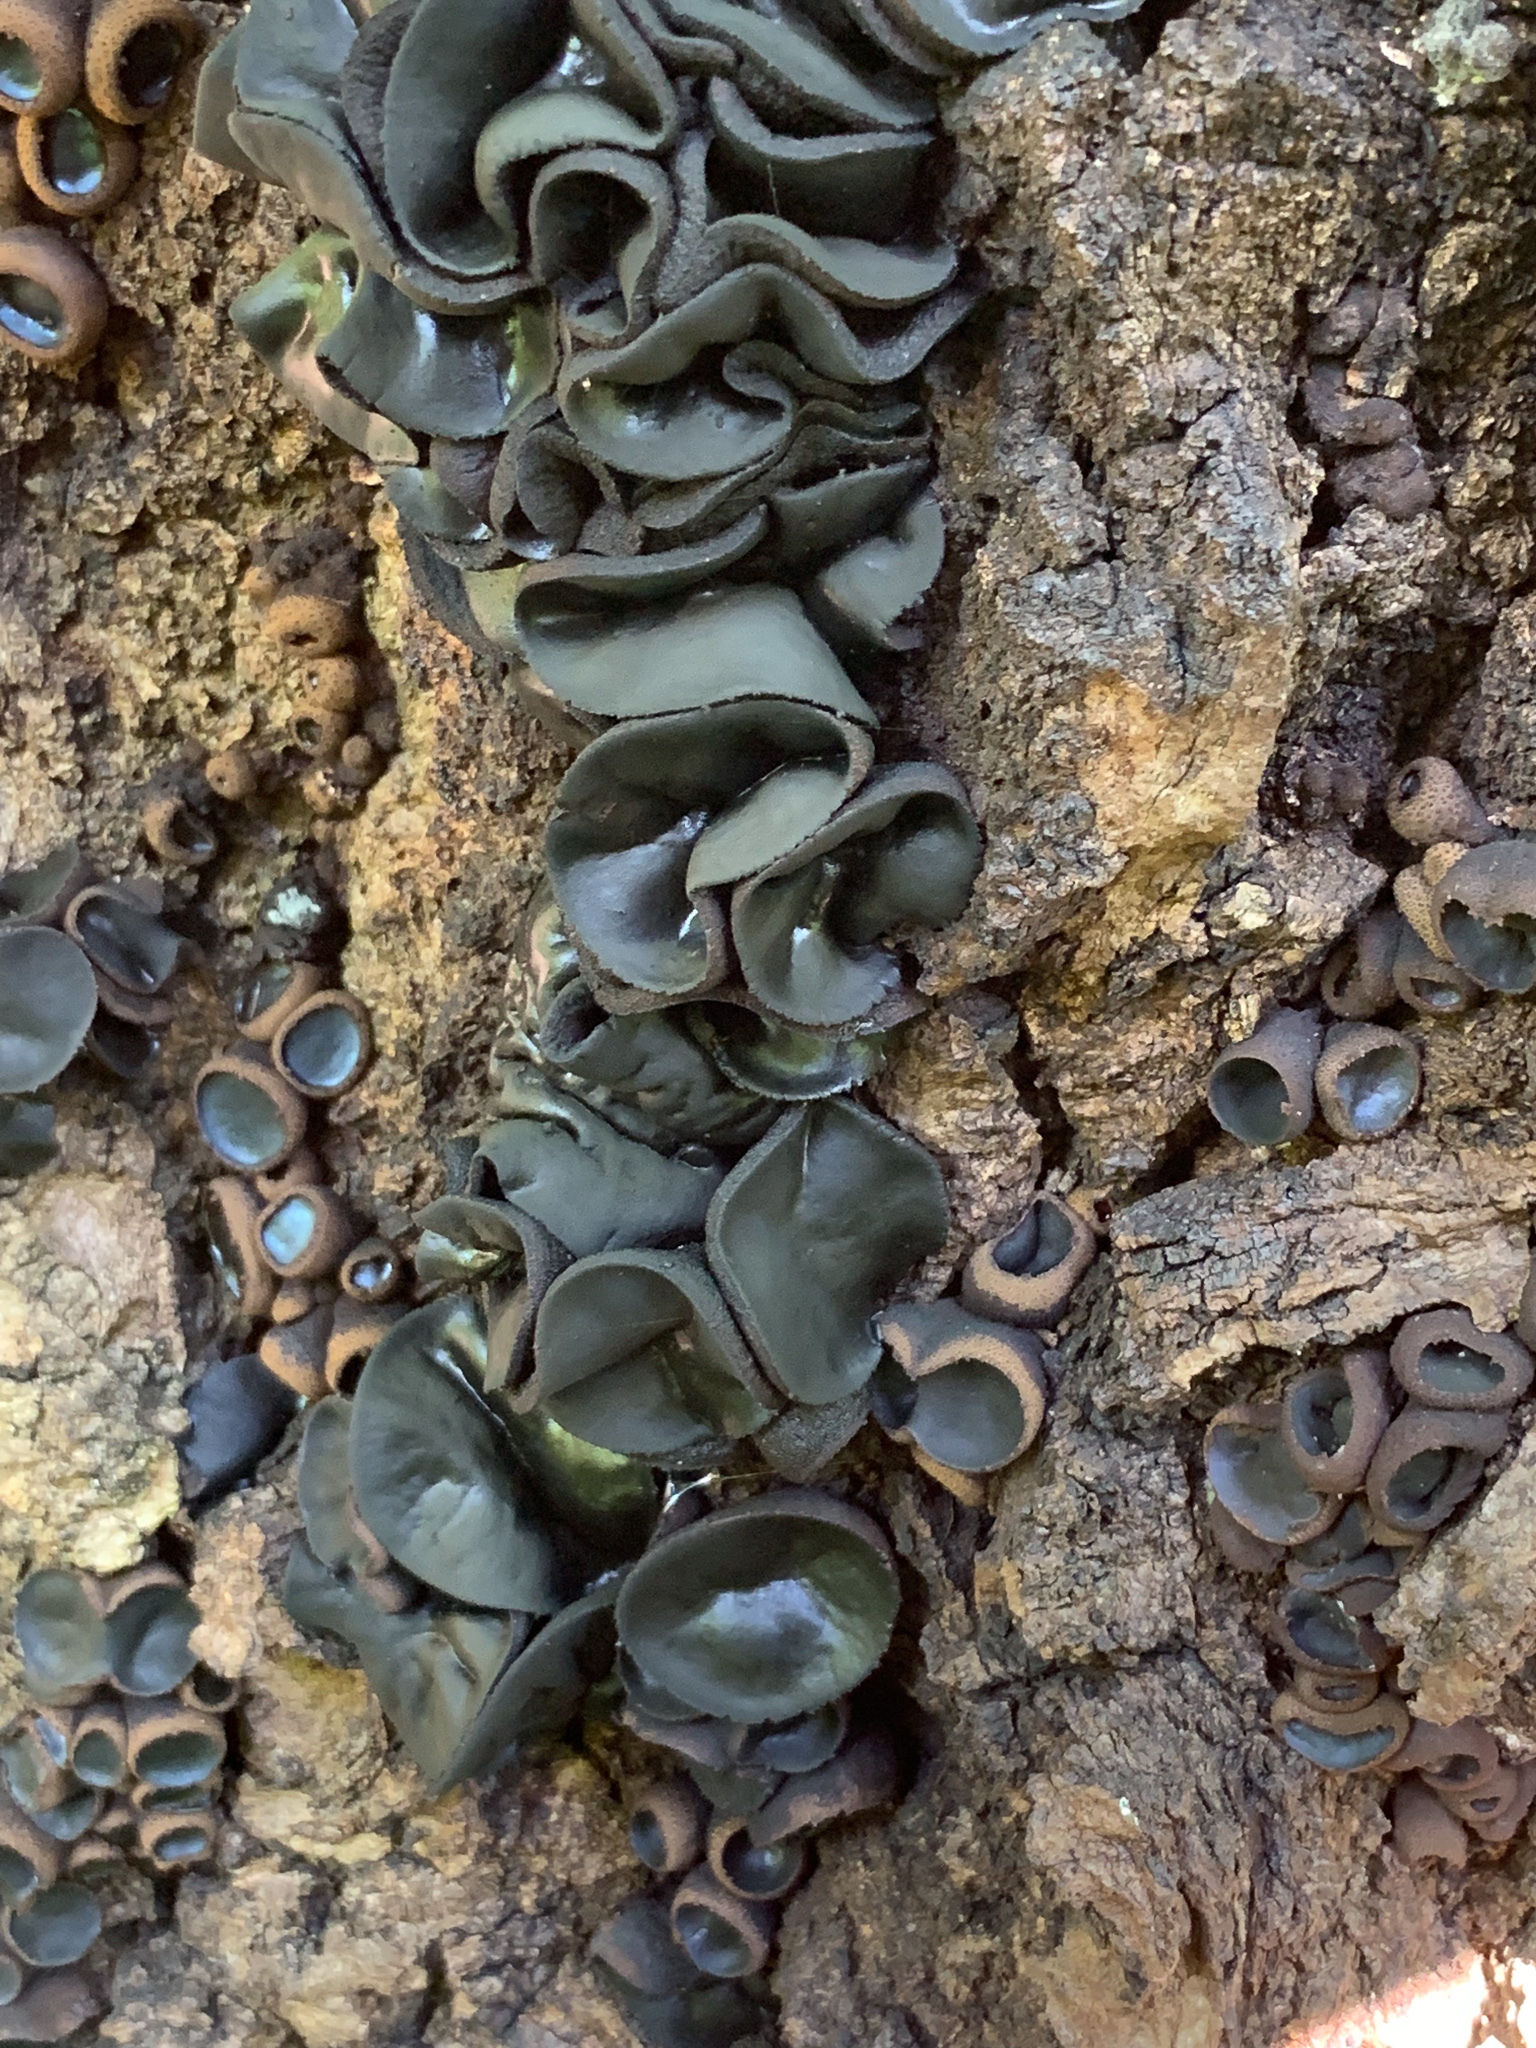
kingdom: Fungi
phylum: Ascomycota
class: Leotiomycetes
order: Phacidiales
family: Phacidiaceae
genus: Bulgaria
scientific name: Bulgaria inquinans
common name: Black bulgar
